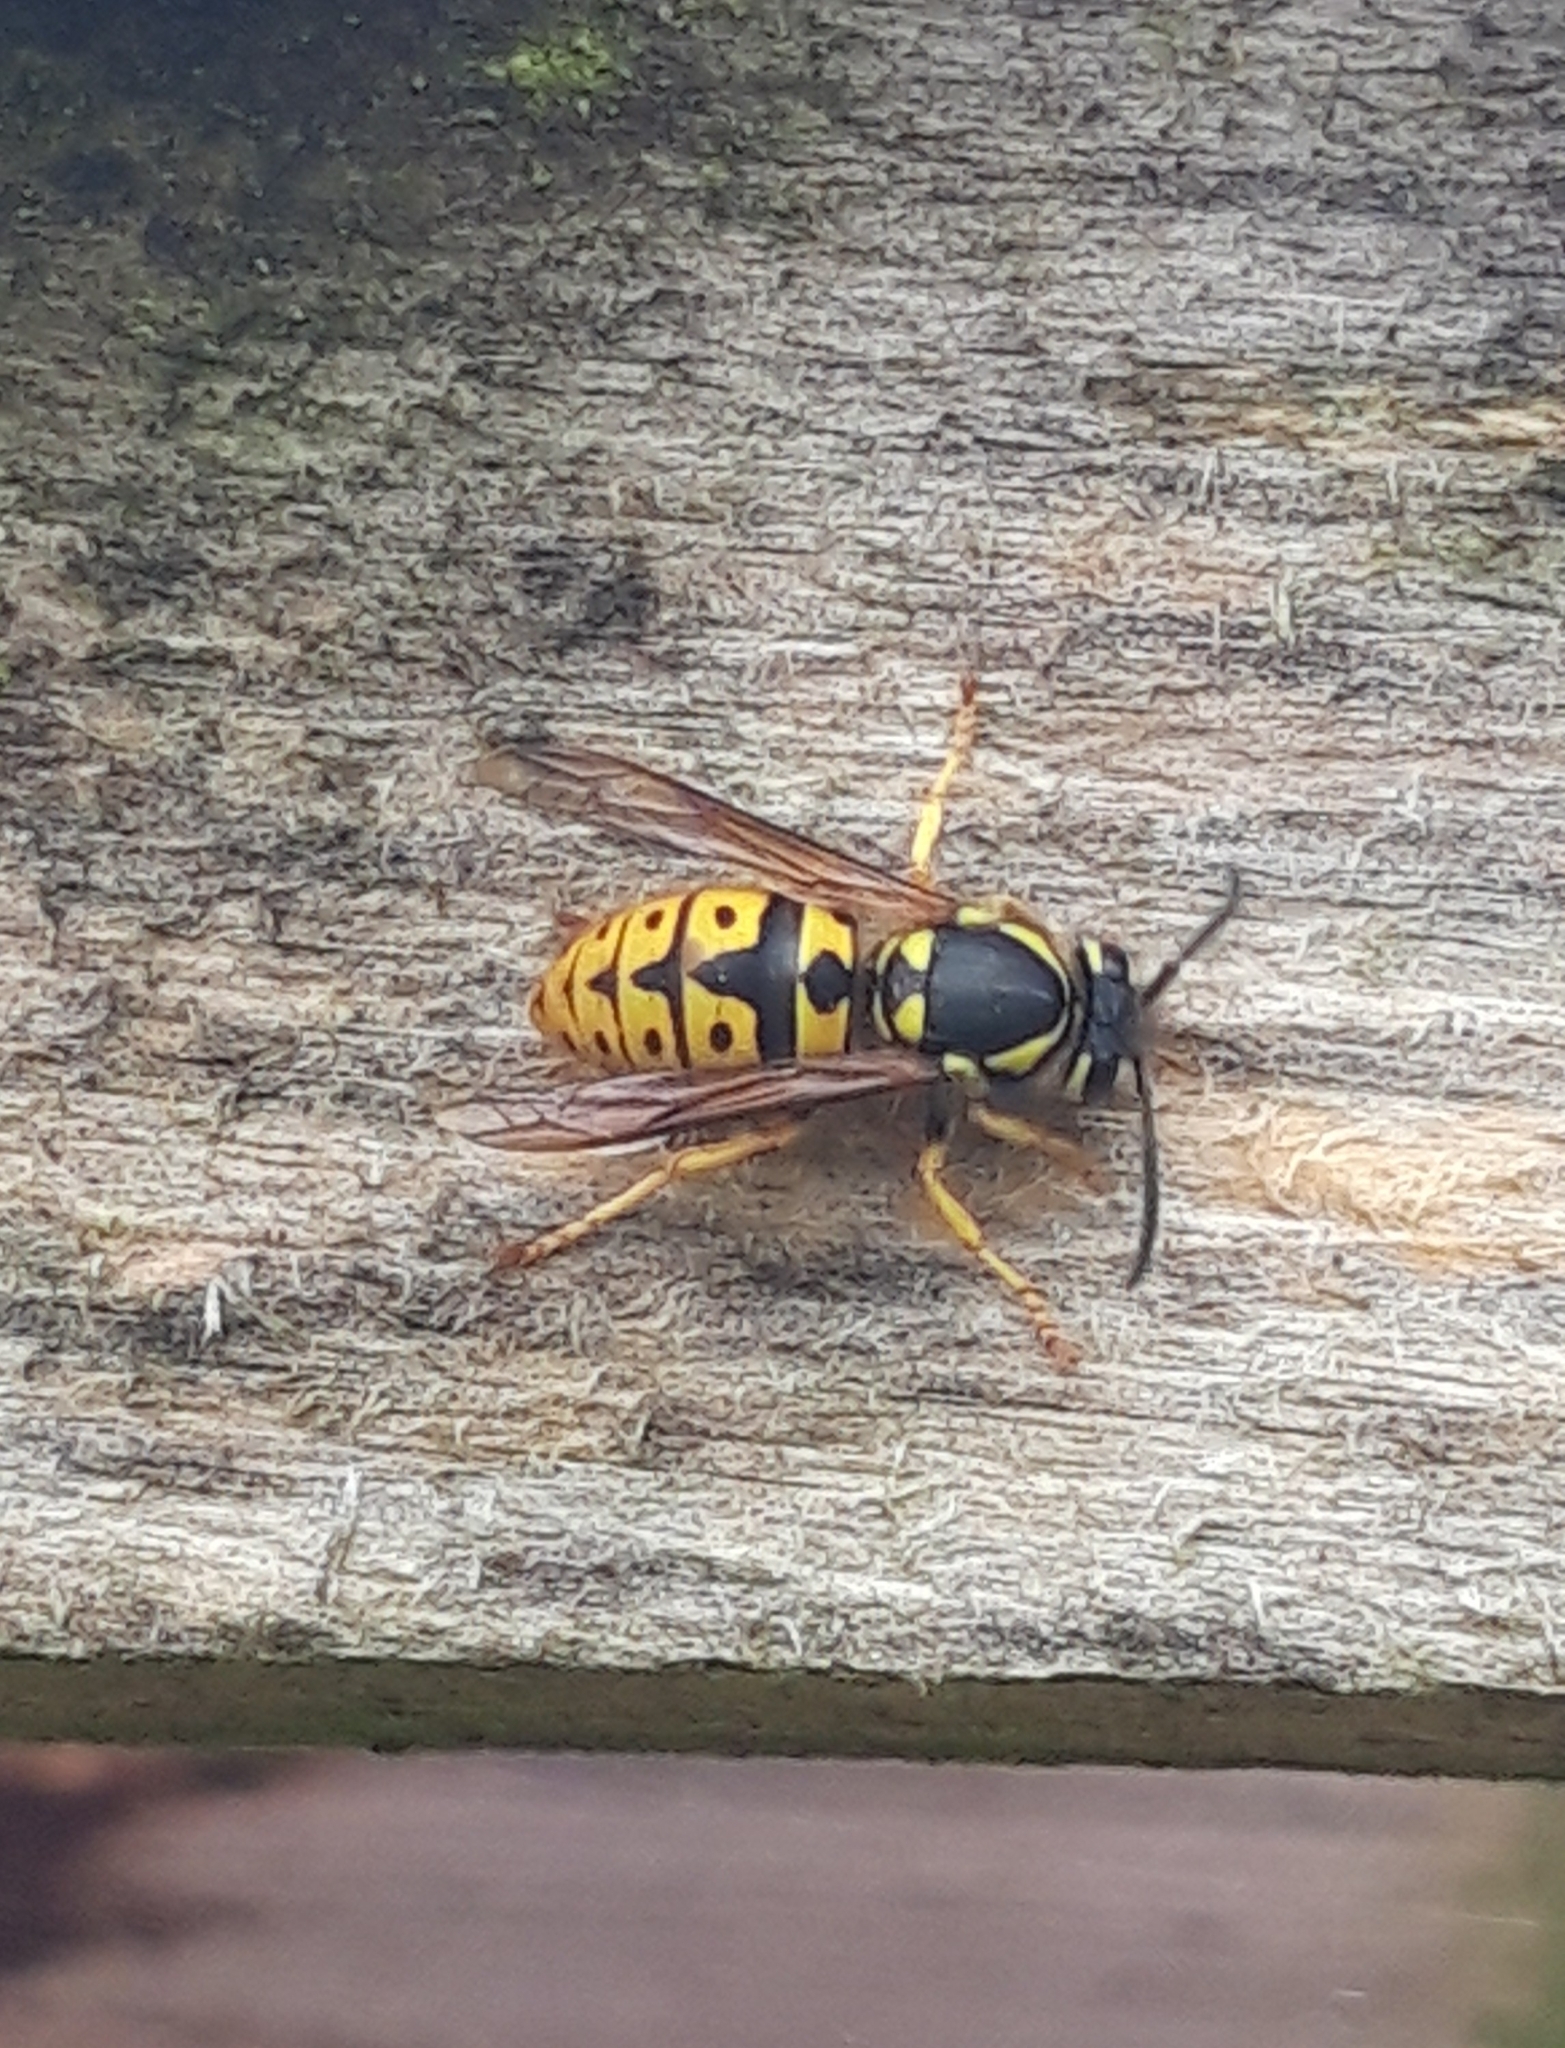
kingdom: Animalia
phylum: Arthropoda
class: Insecta
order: Hymenoptera
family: Vespidae
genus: Vespula
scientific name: Vespula germanica
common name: German wasp
